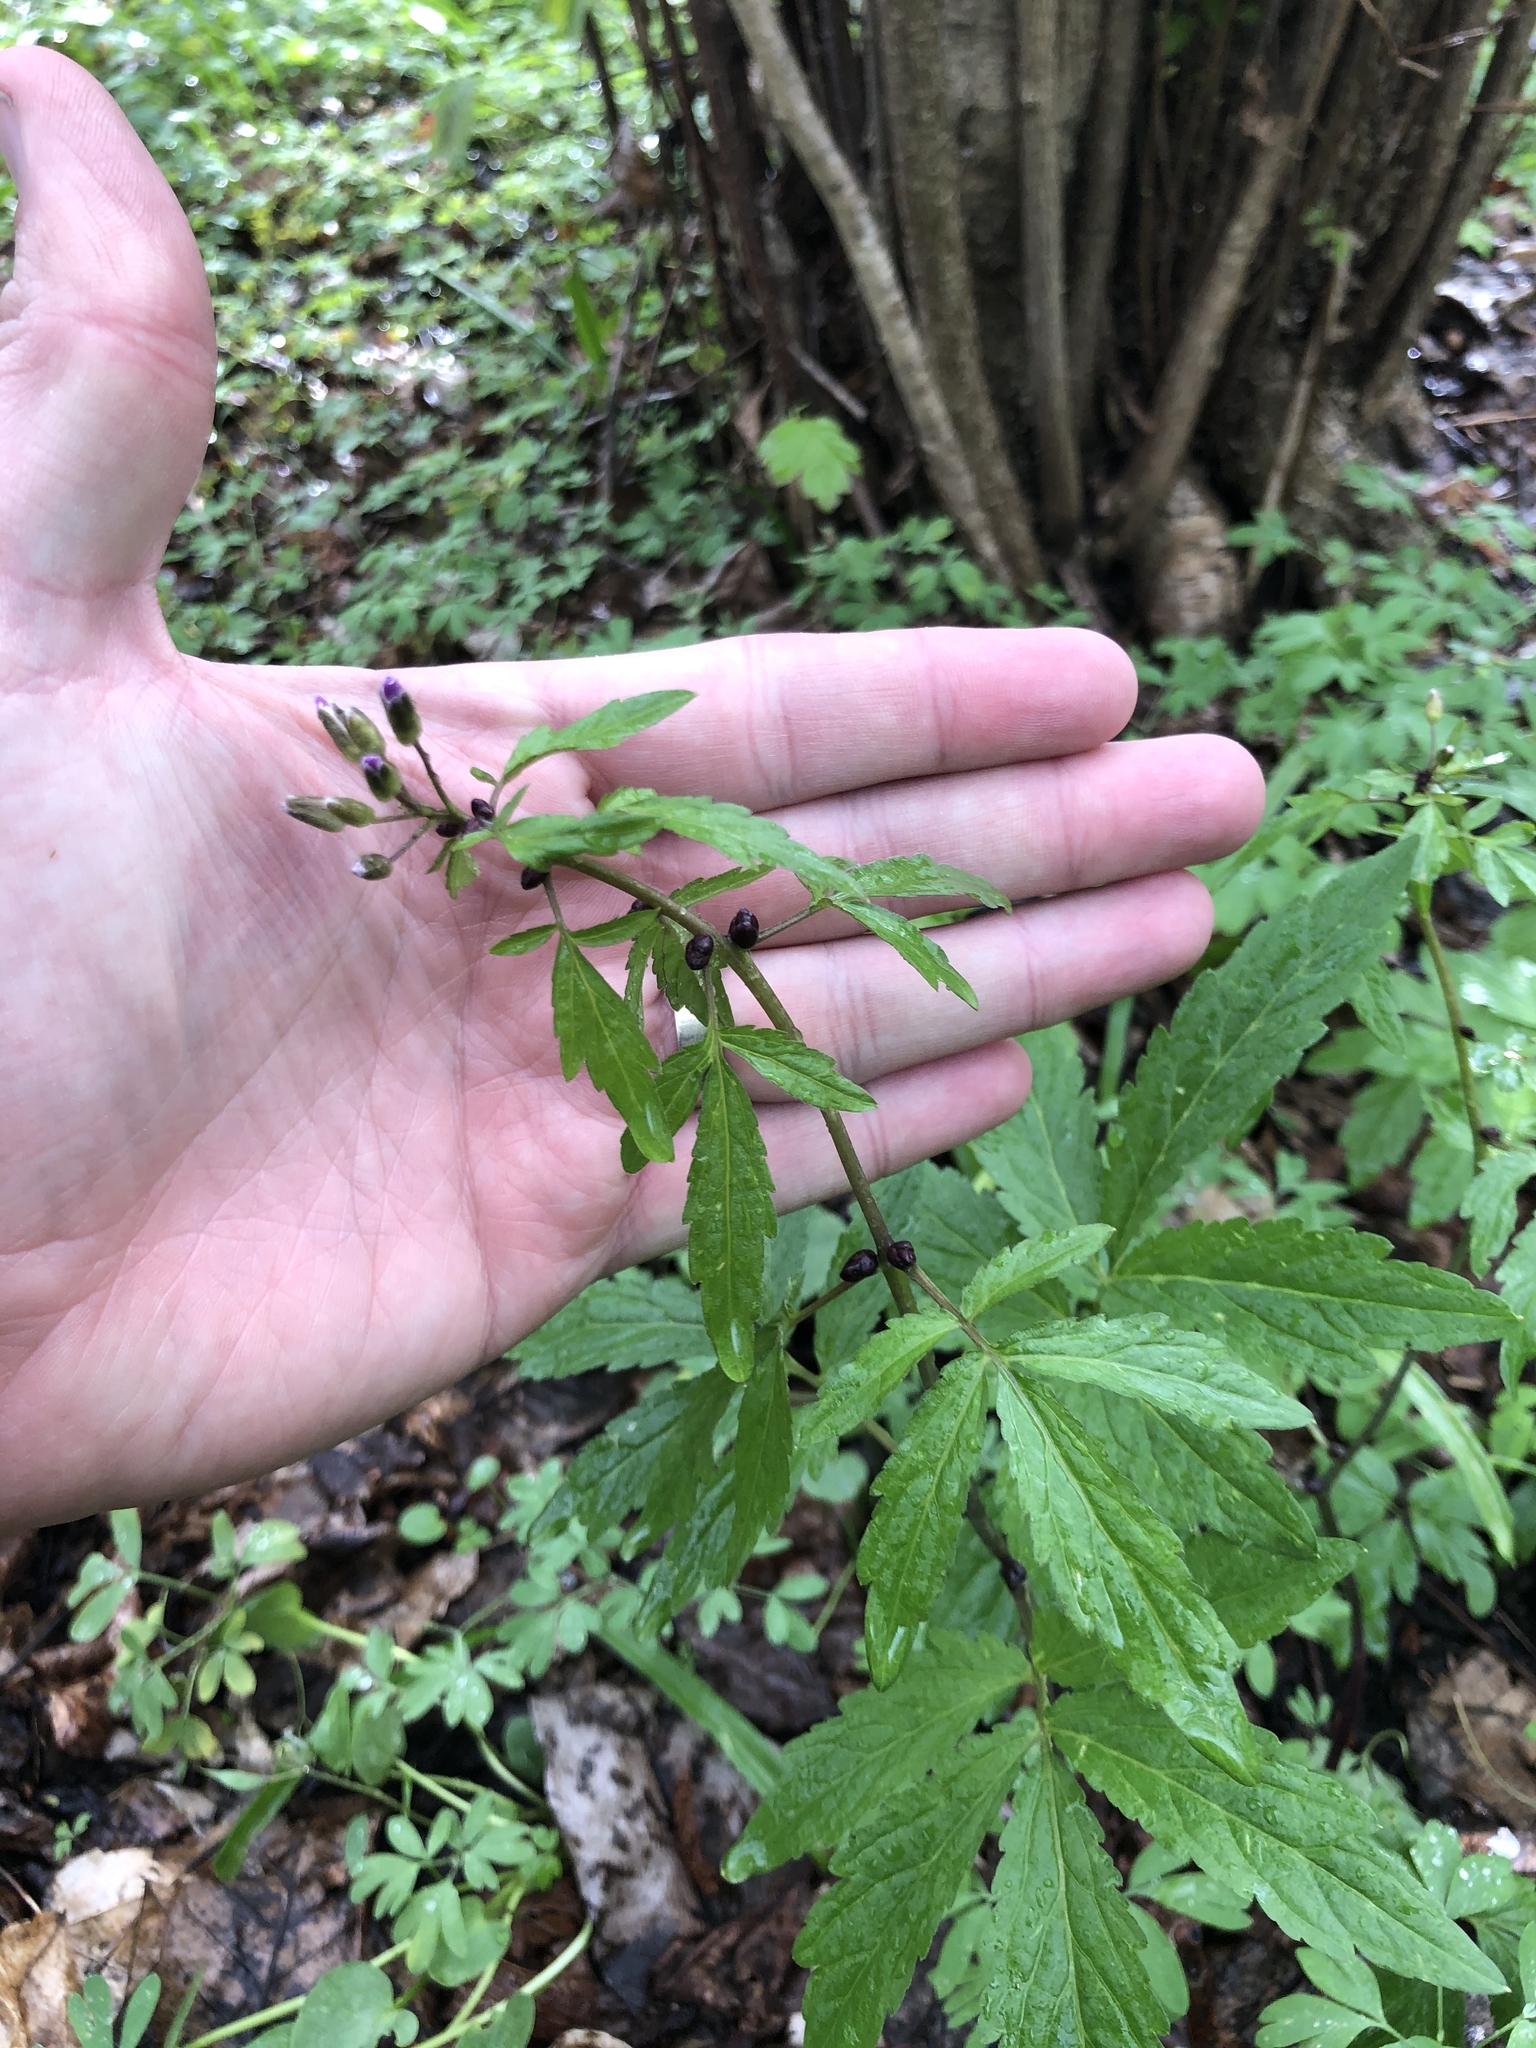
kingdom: Plantae
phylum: Tracheophyta
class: Magnoliopsida
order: Brassicales
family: Brassicaceae
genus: Cardamine
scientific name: Cardamine bulbifera
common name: Coralroot bittercress
